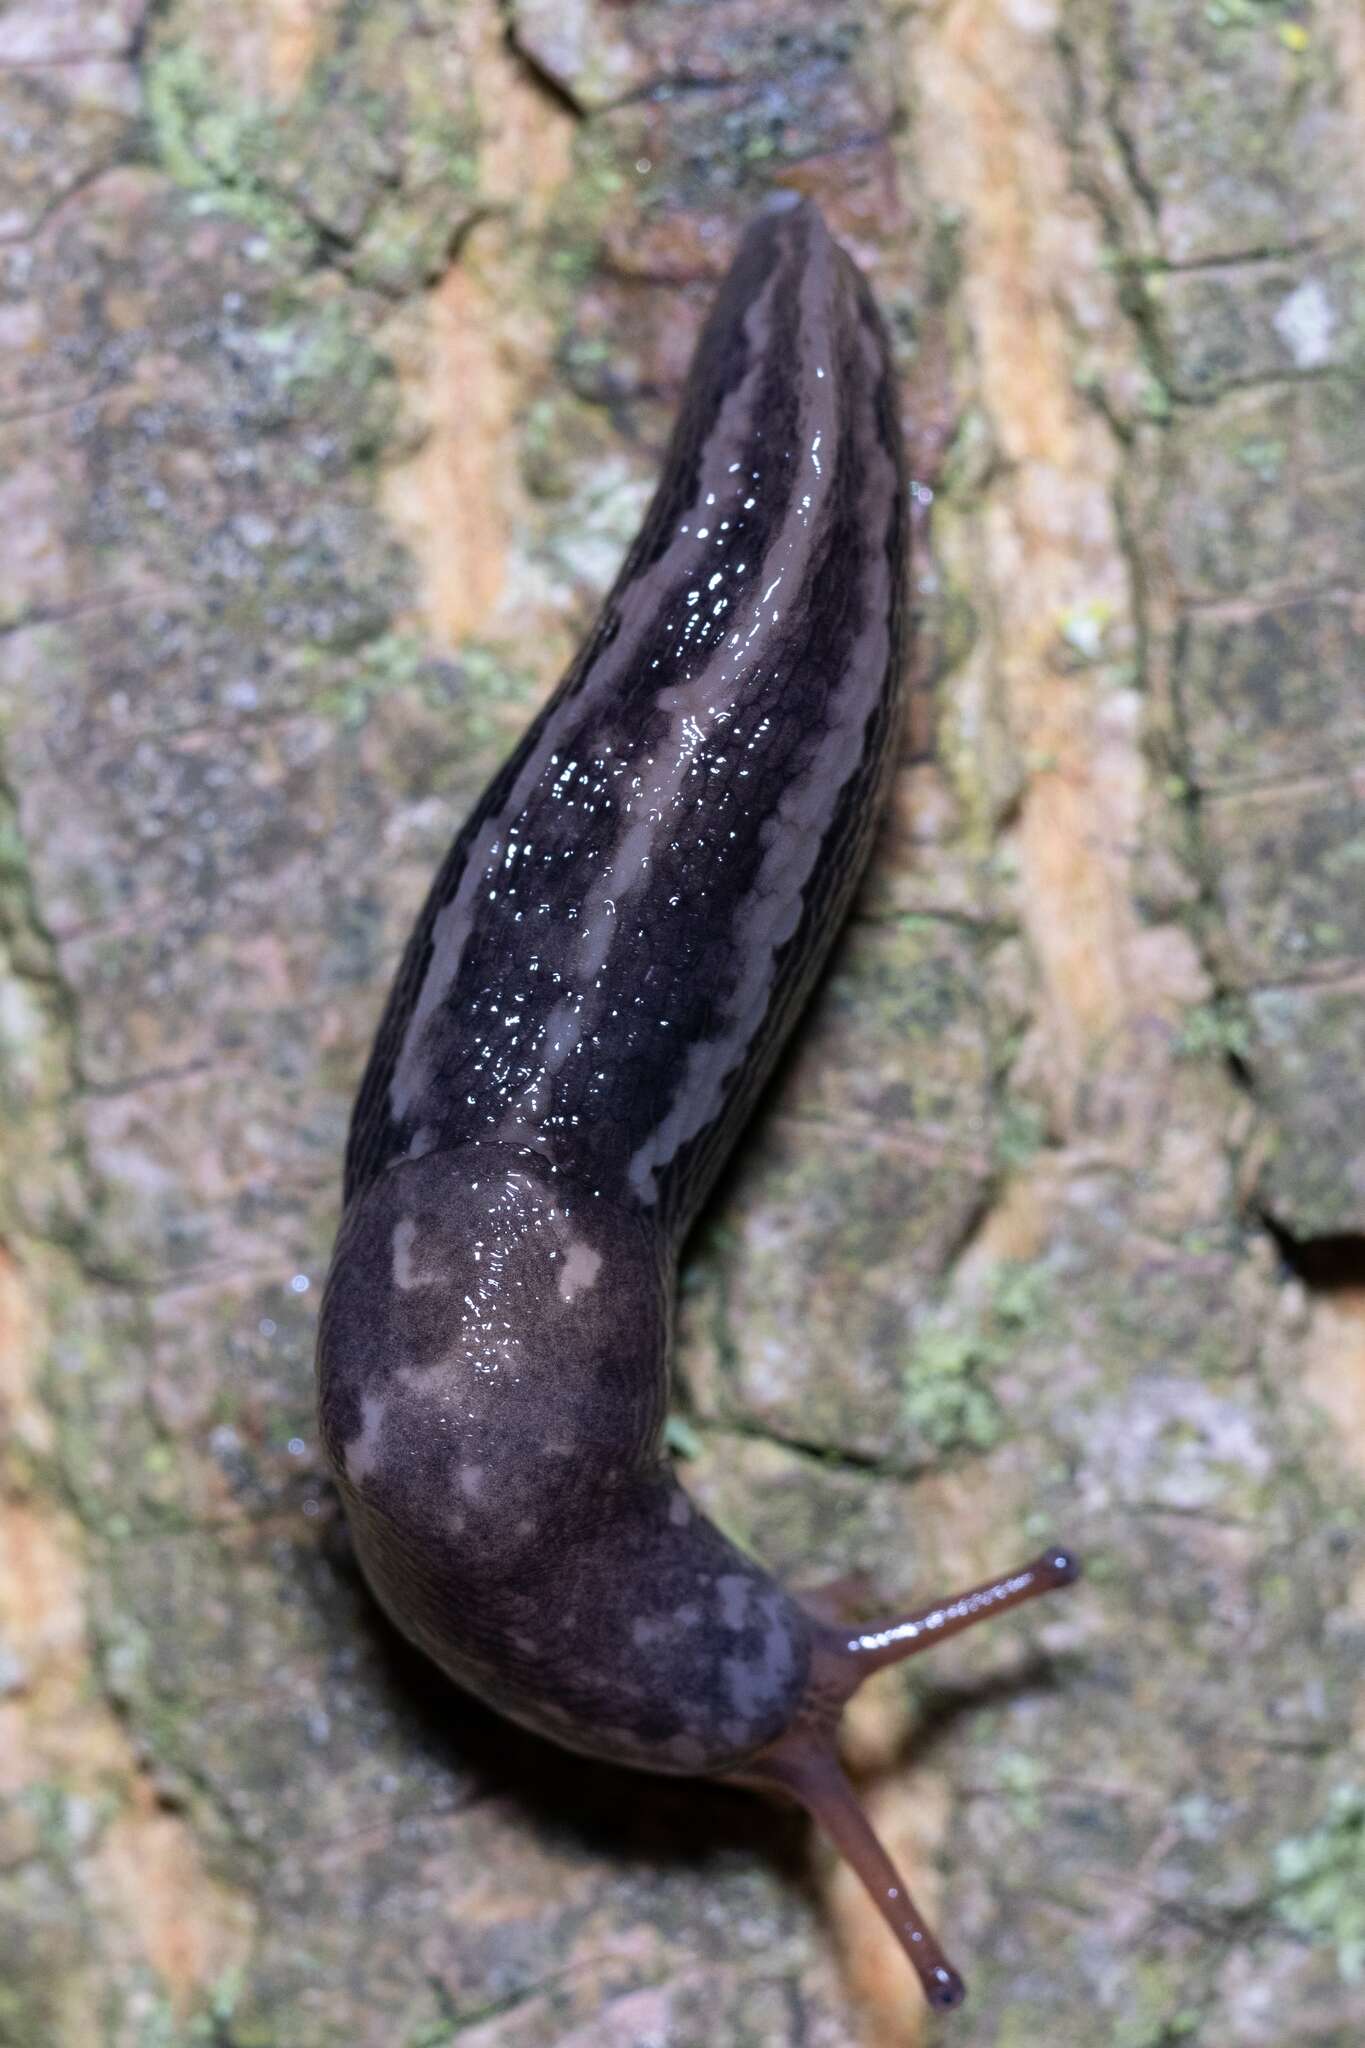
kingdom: Animalia
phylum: Mollusca
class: Gastropoda
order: Stylommatophora
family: Limacidae
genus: Limax
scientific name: Limax maximus
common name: Great grey slug
